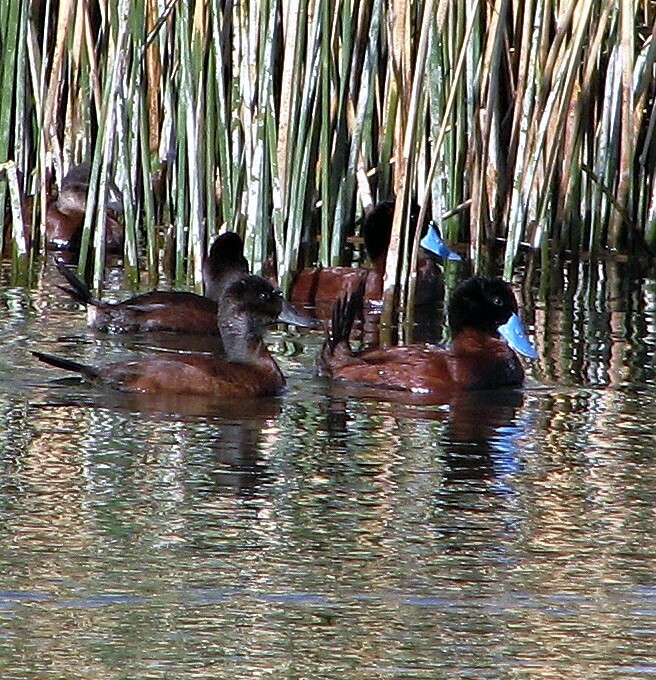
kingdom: Animalia
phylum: Chordata
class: Aves
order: Anseriformes
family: Anatidae
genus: Oxyura
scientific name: Oxyura ferruginea
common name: Andean duck
